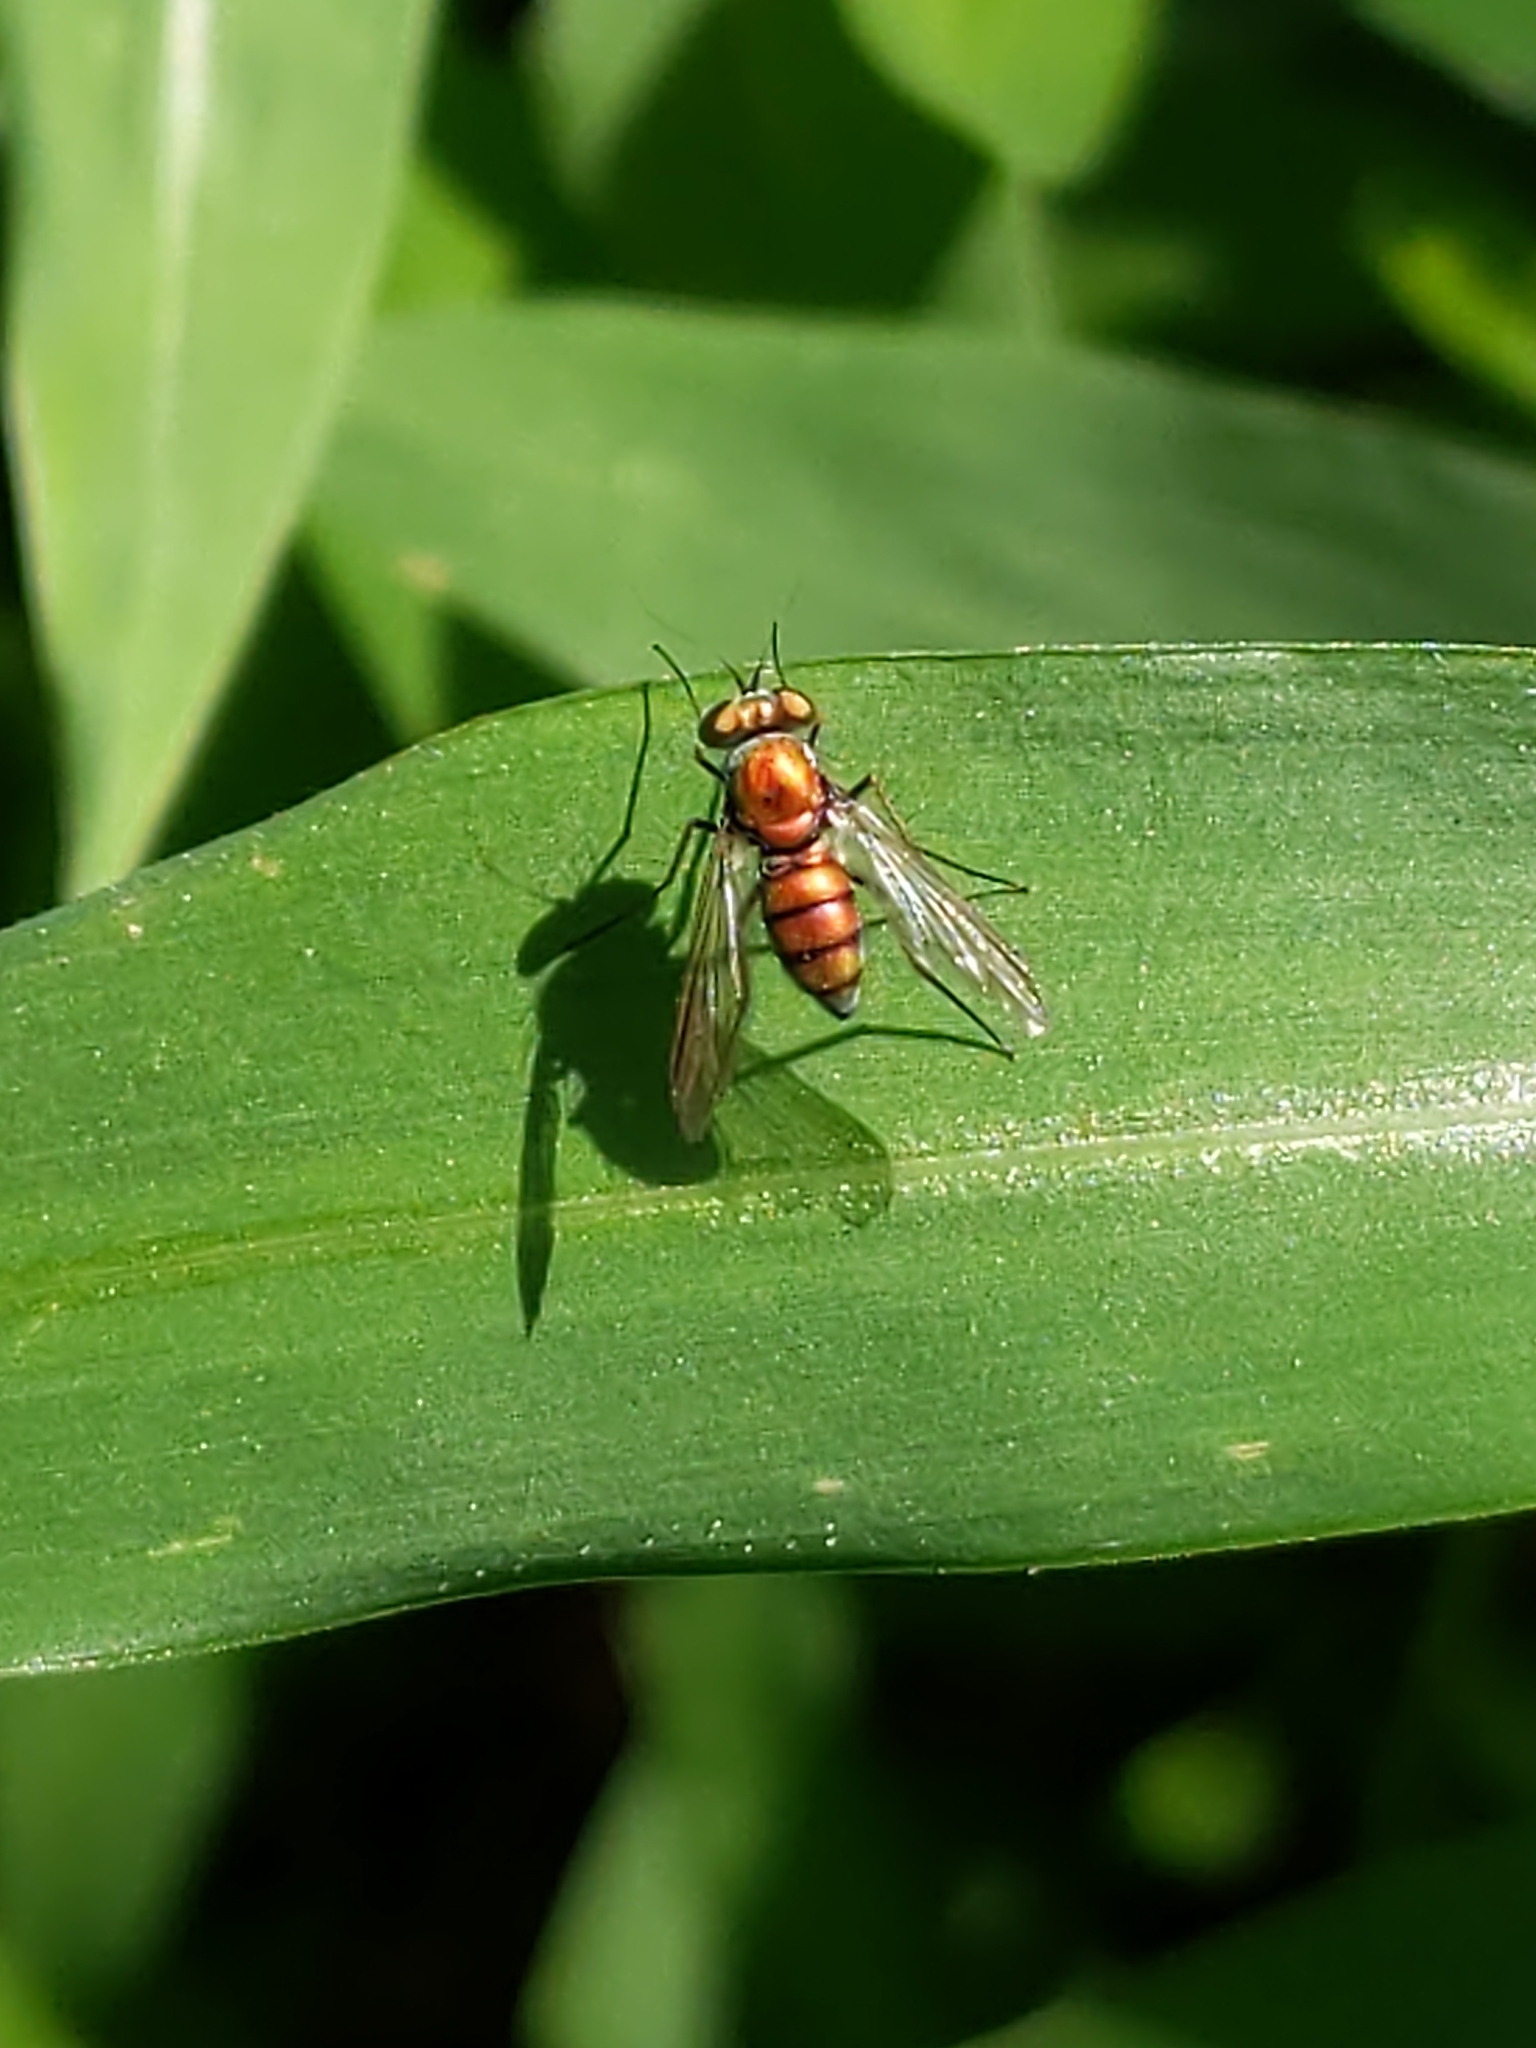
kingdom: Animalia
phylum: Arthropoda
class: Insecta
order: Diptera
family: Dolichopodidae
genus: Condylostylus
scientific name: Condylostylus
